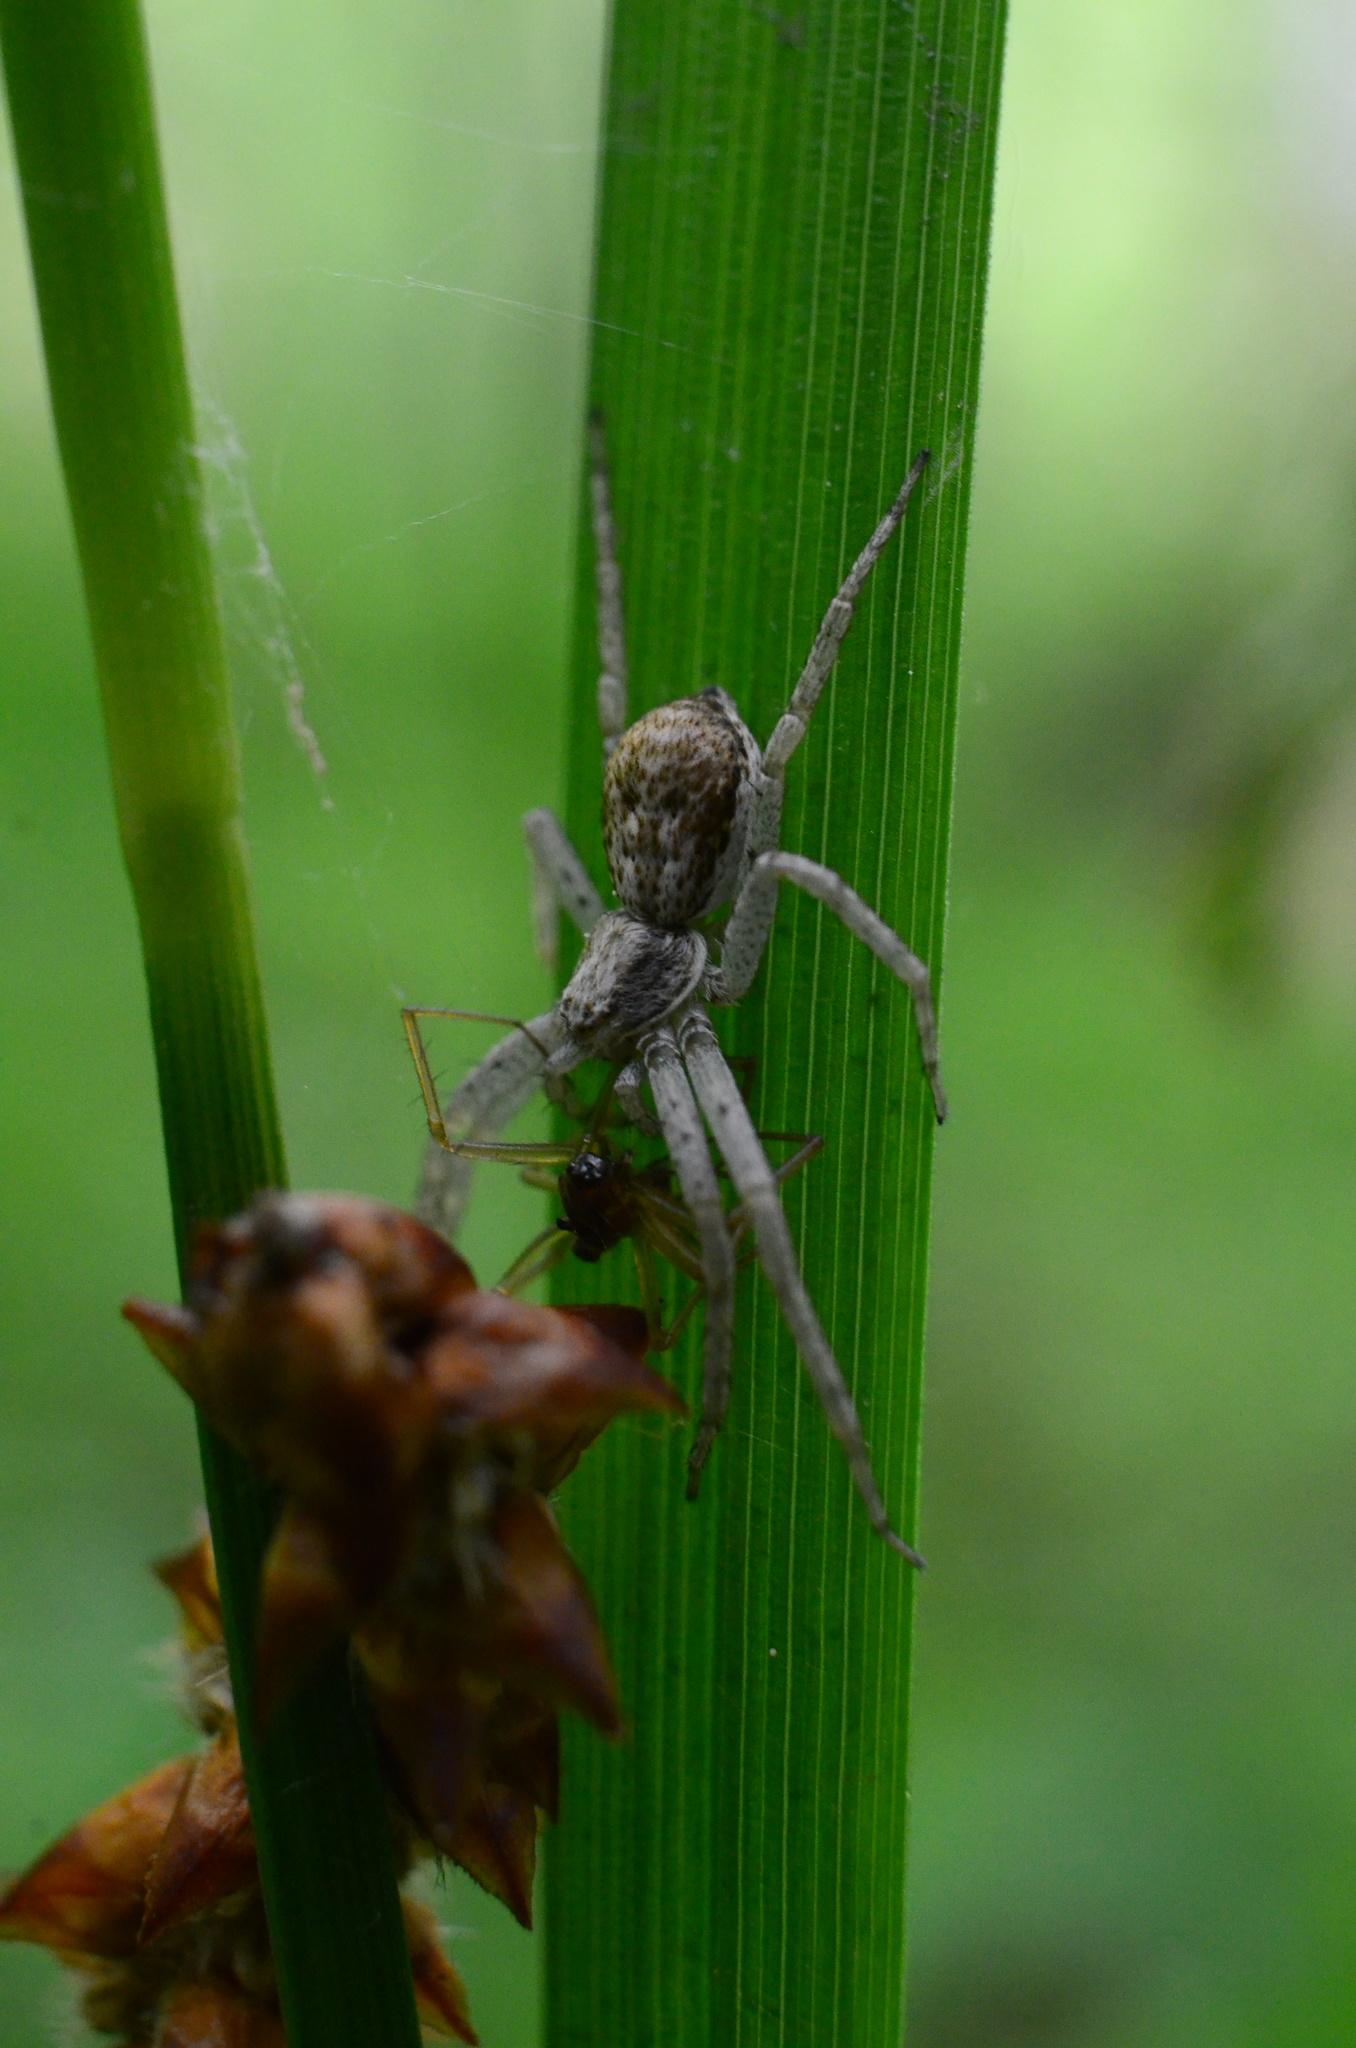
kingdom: Animalia
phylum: Arthropoda
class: Arachnida
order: Araneae
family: Philodromidae
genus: Philodromus
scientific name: Philodromus dispar
